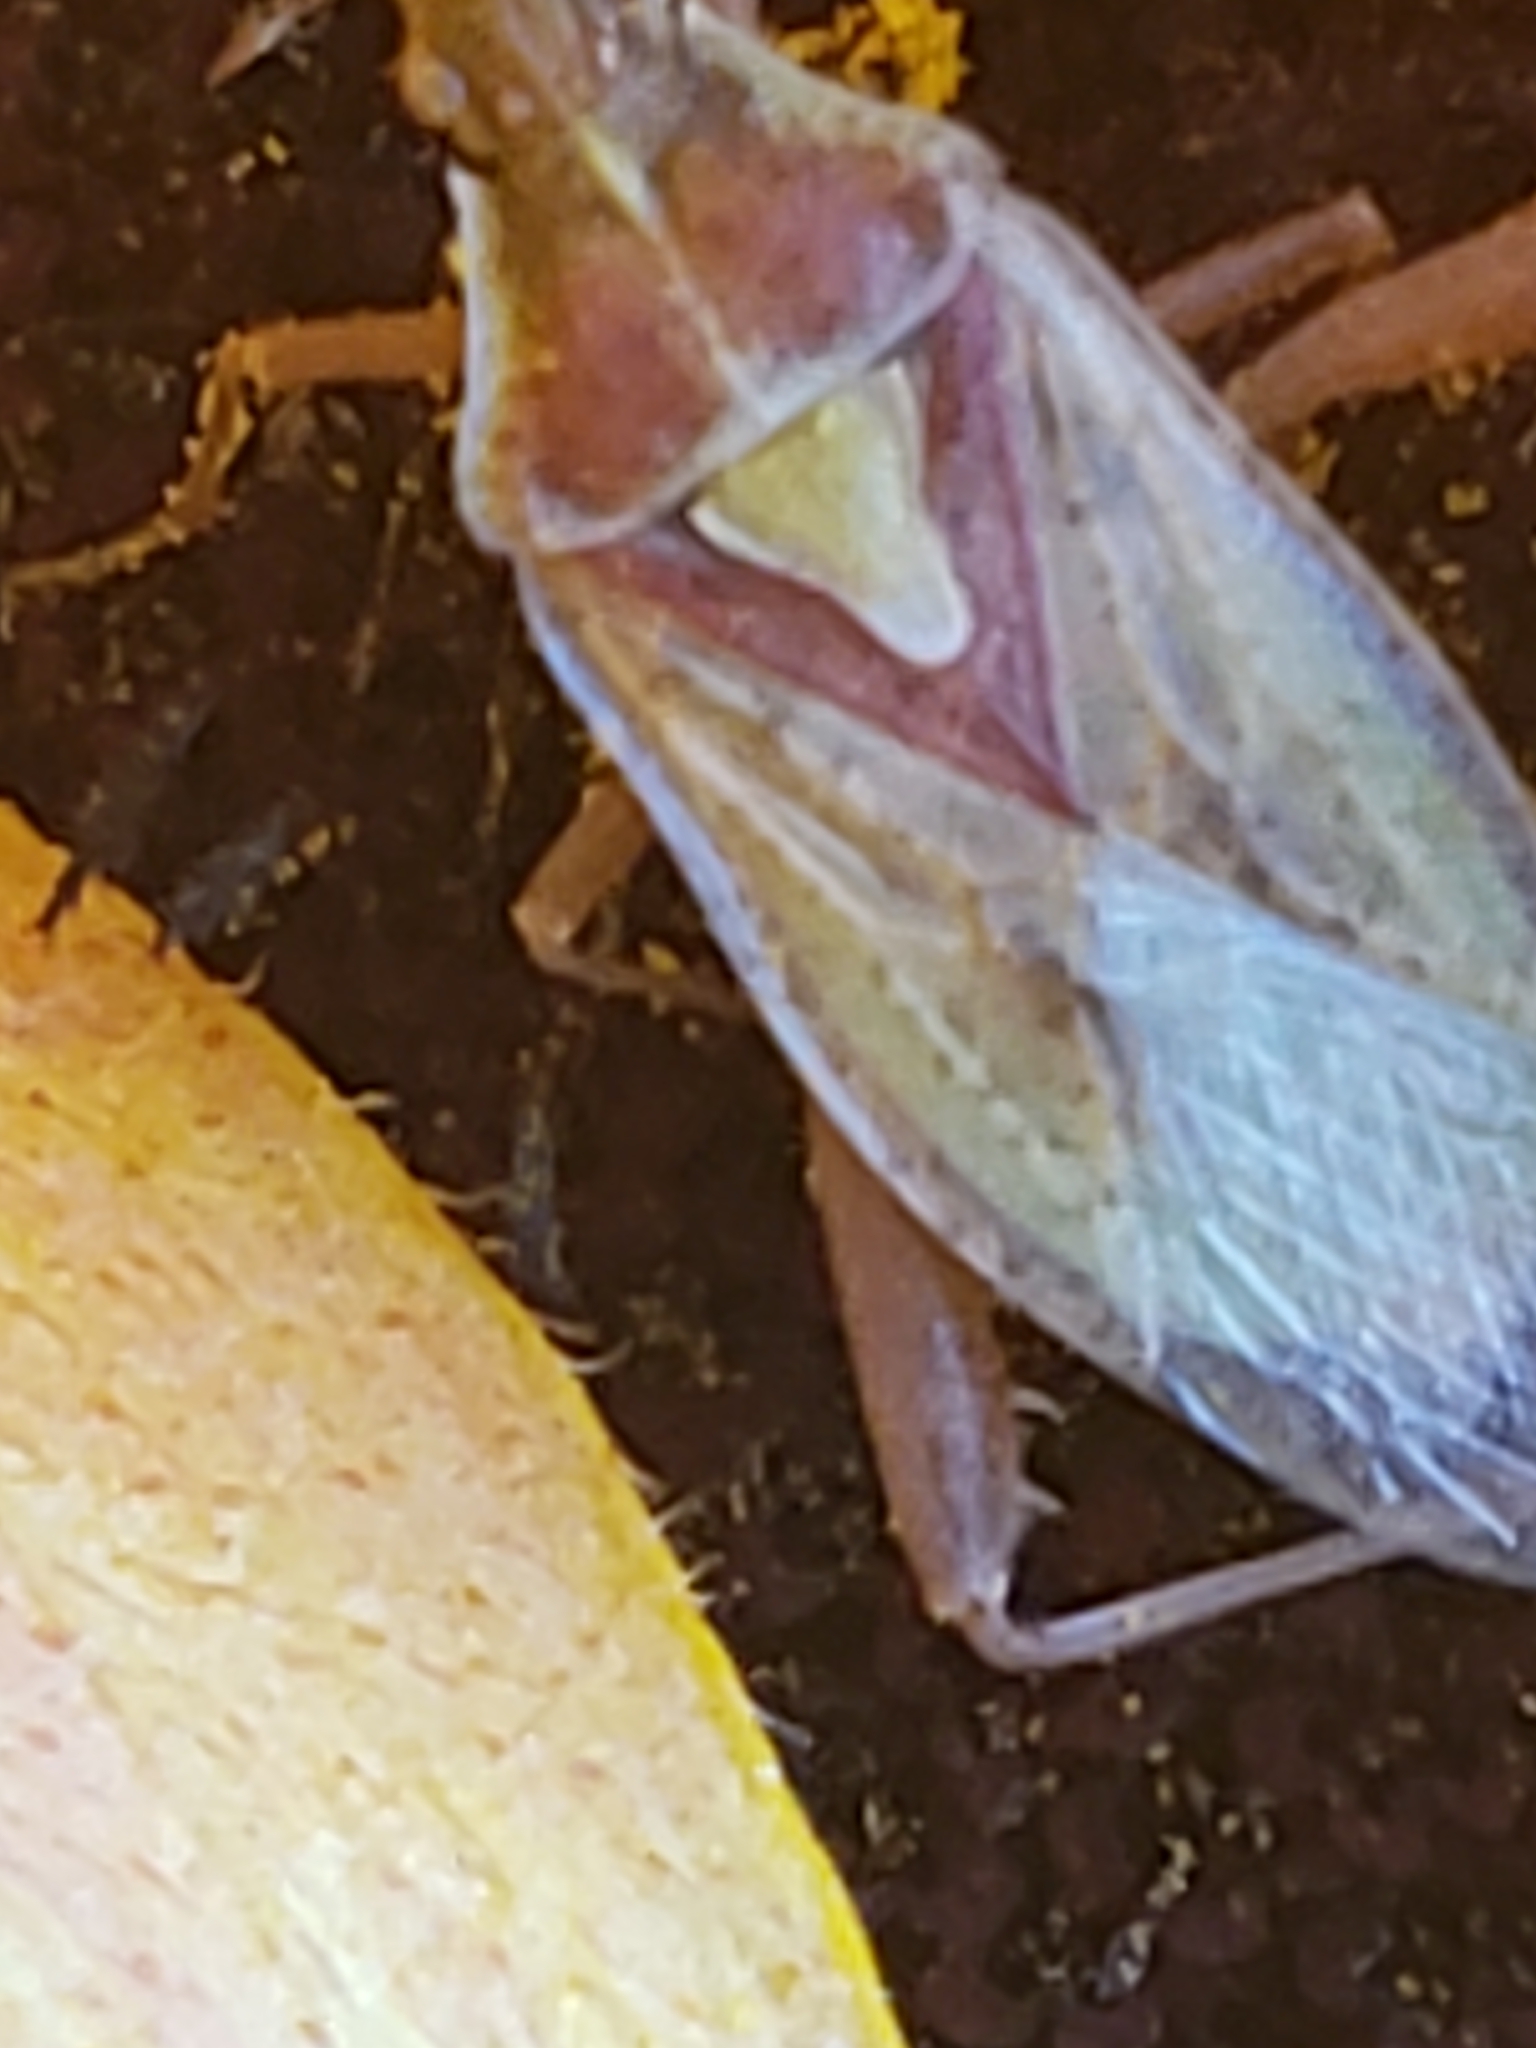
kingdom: Animalia
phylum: Arthropoda
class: Insecta
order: Hemiptera
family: Rhopalidae
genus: Harmostes
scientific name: Harmostes reflexulus
